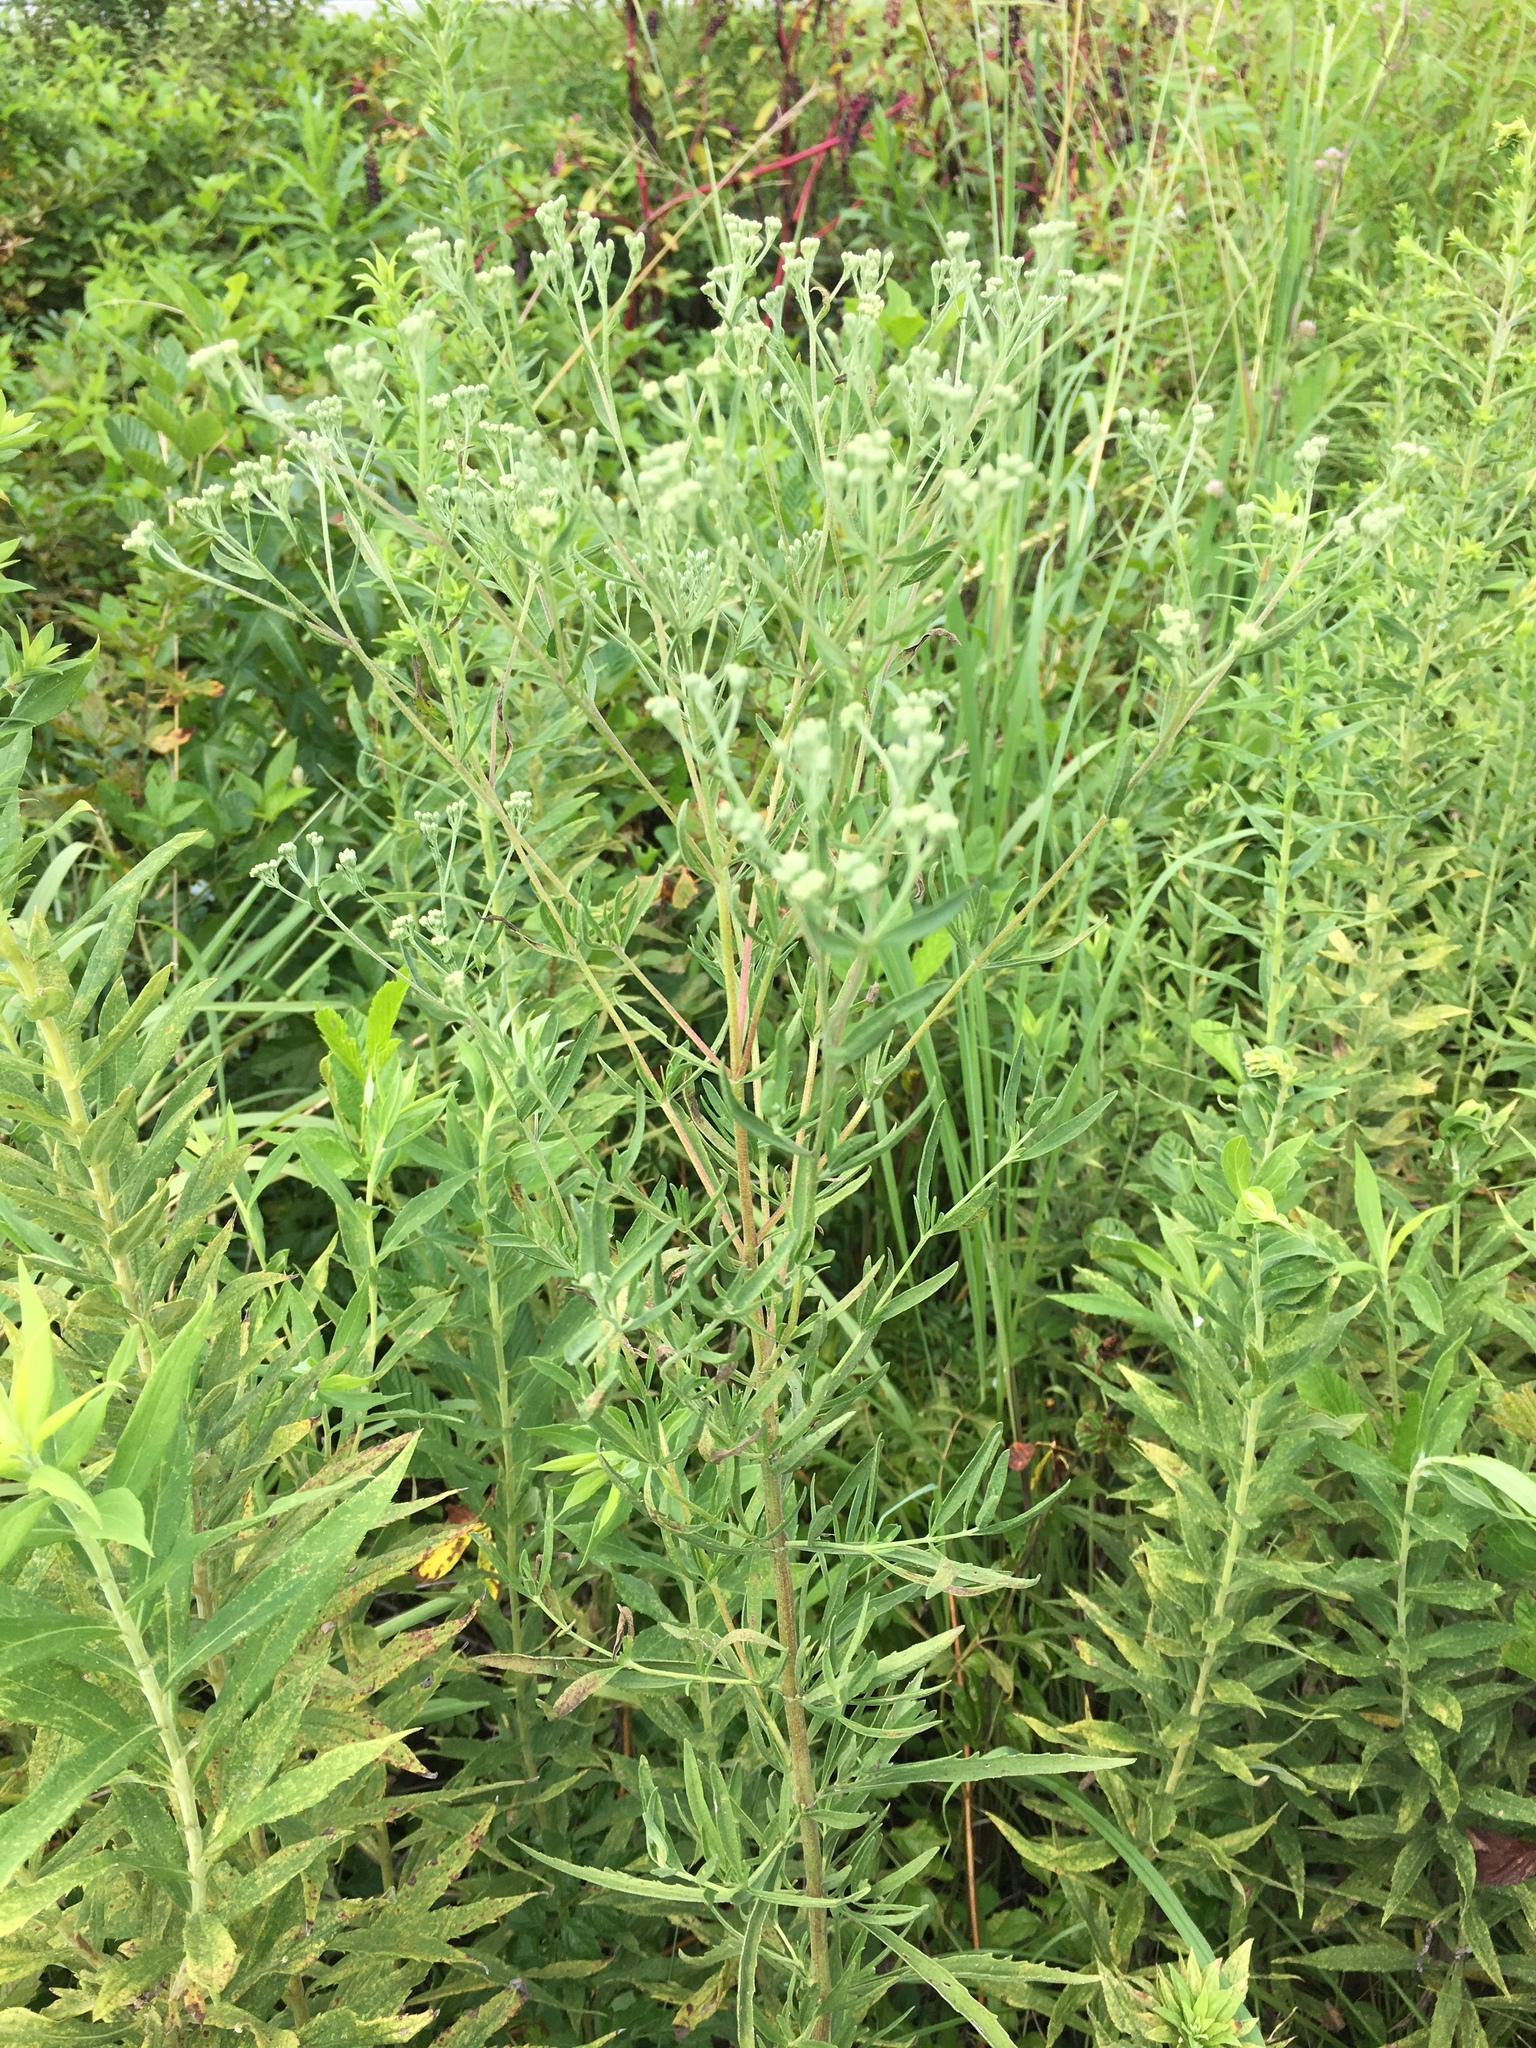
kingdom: Plantae
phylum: Tracheophyta
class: Magnoliopsida
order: Asterales
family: Asteraceae
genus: Eupatorium
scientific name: Eupatorium hyssopifolium
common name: Hyssop-leaf thoroughwort
